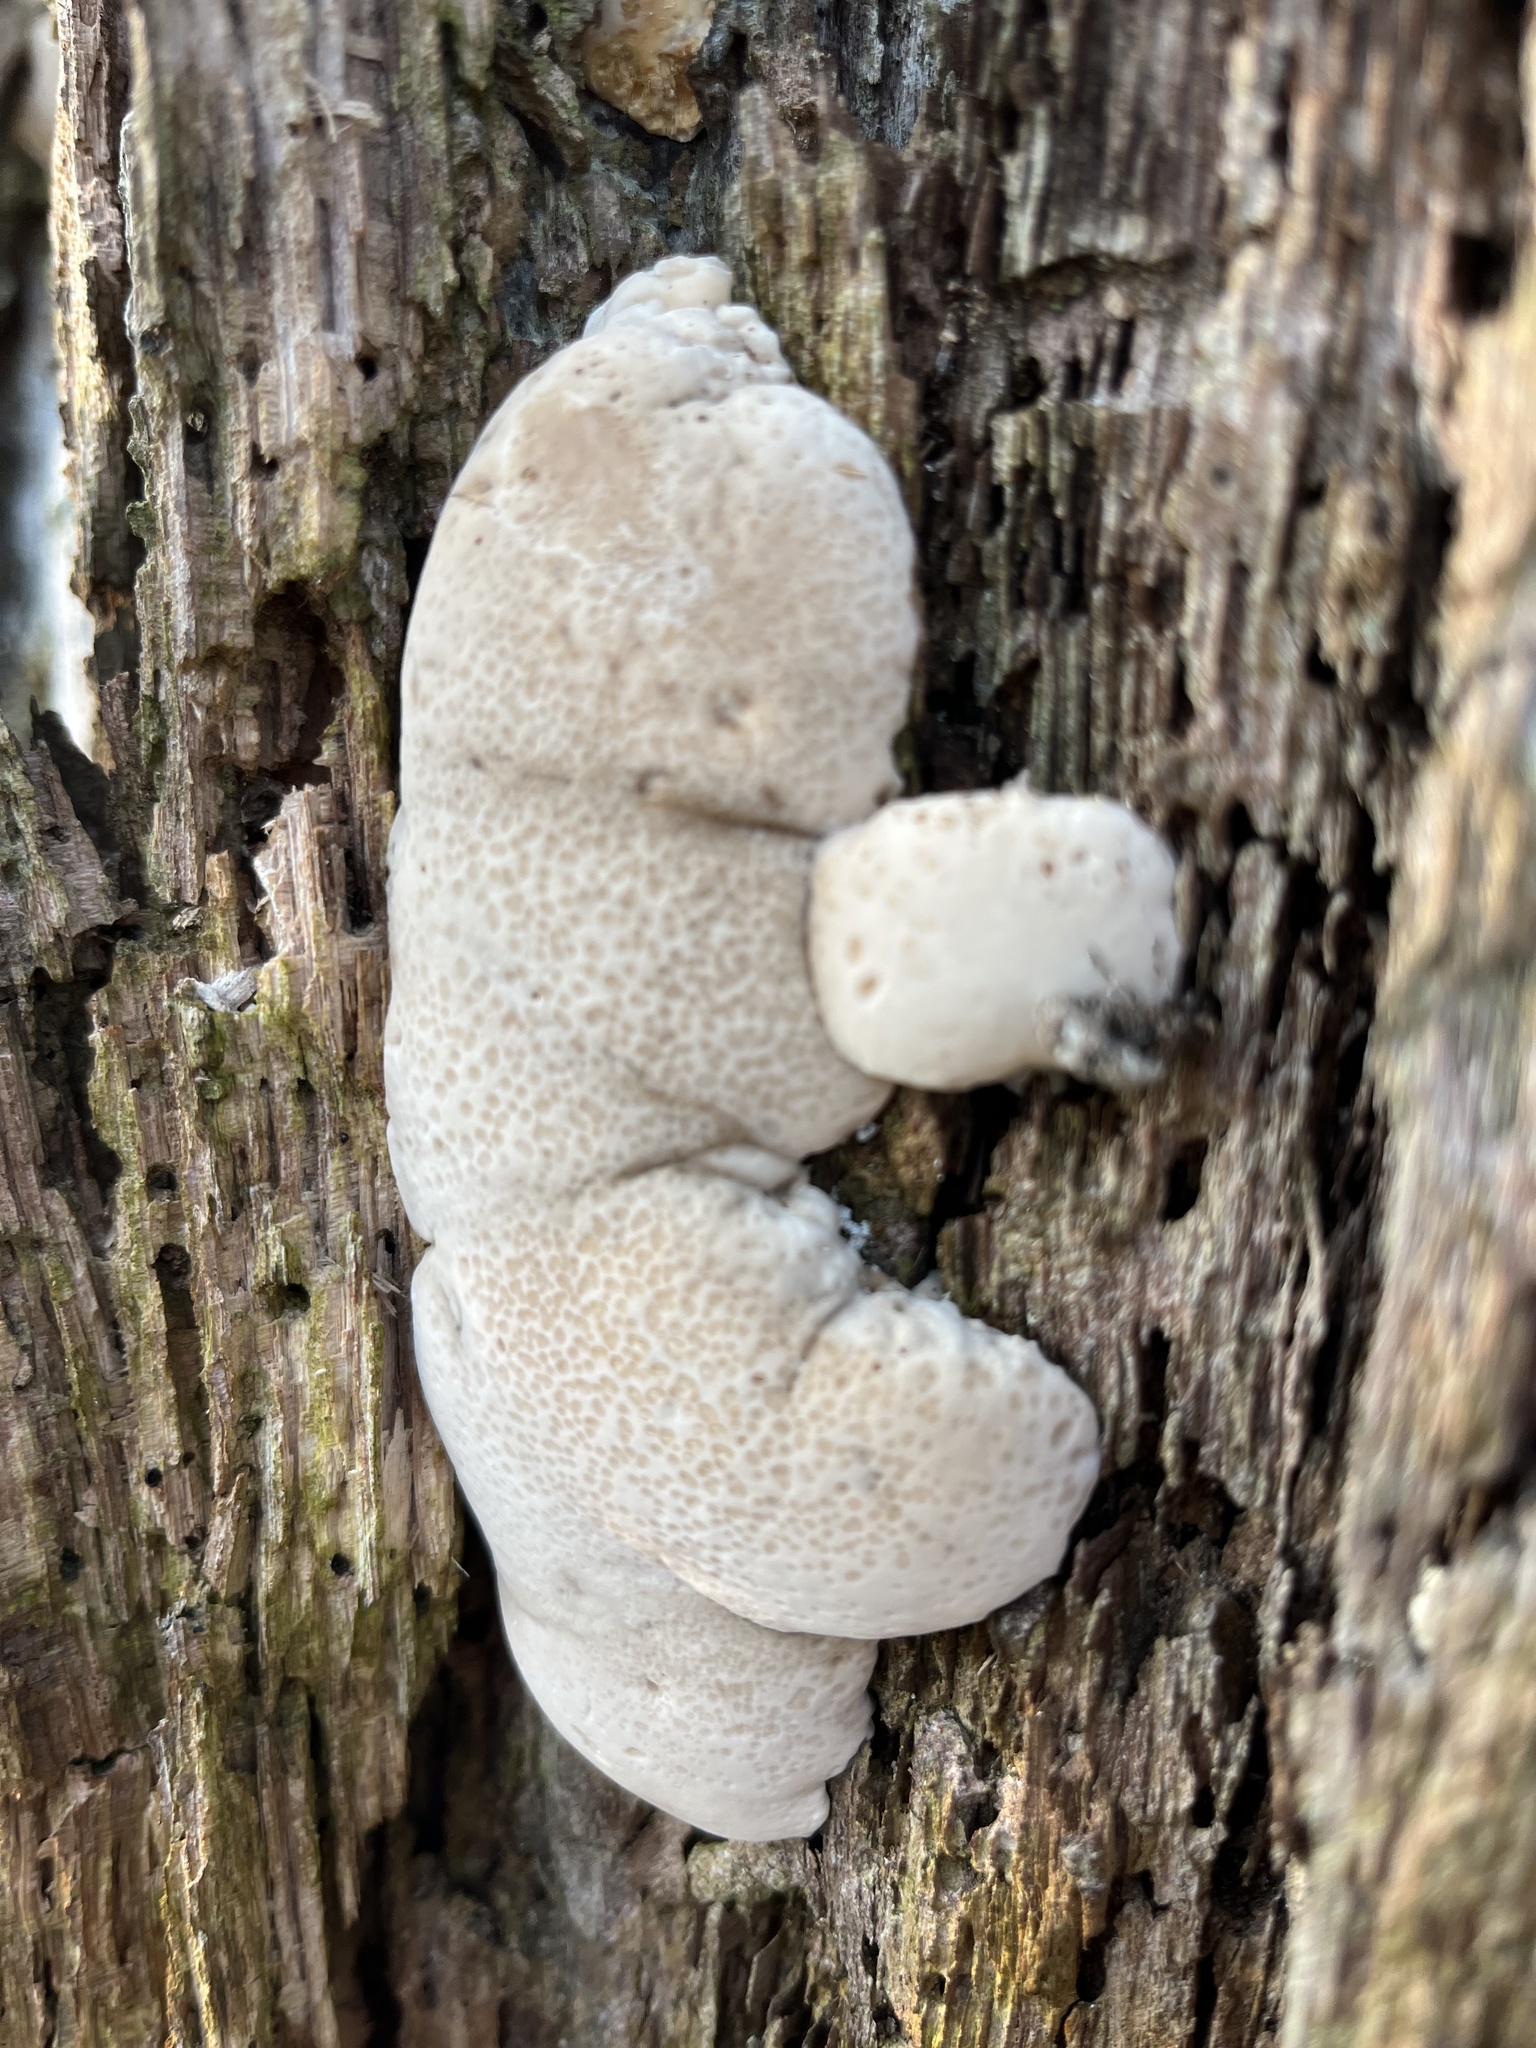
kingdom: Fungi
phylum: Basidiomycota
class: Agaricomycetes
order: Hymenochaetales
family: Hymenochaetaceae
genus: Pseudoinonotus
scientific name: Pseudoinonotus dryadeus
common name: Oak bracket
